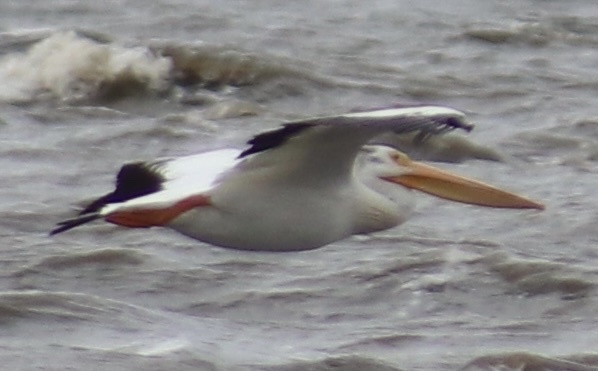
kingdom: Animalia
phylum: Chordata
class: Aves
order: Pelecaniformes
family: Pelecanidae
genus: Pelecanus
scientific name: Pelecanus erythrorhynchos
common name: American white pelican
